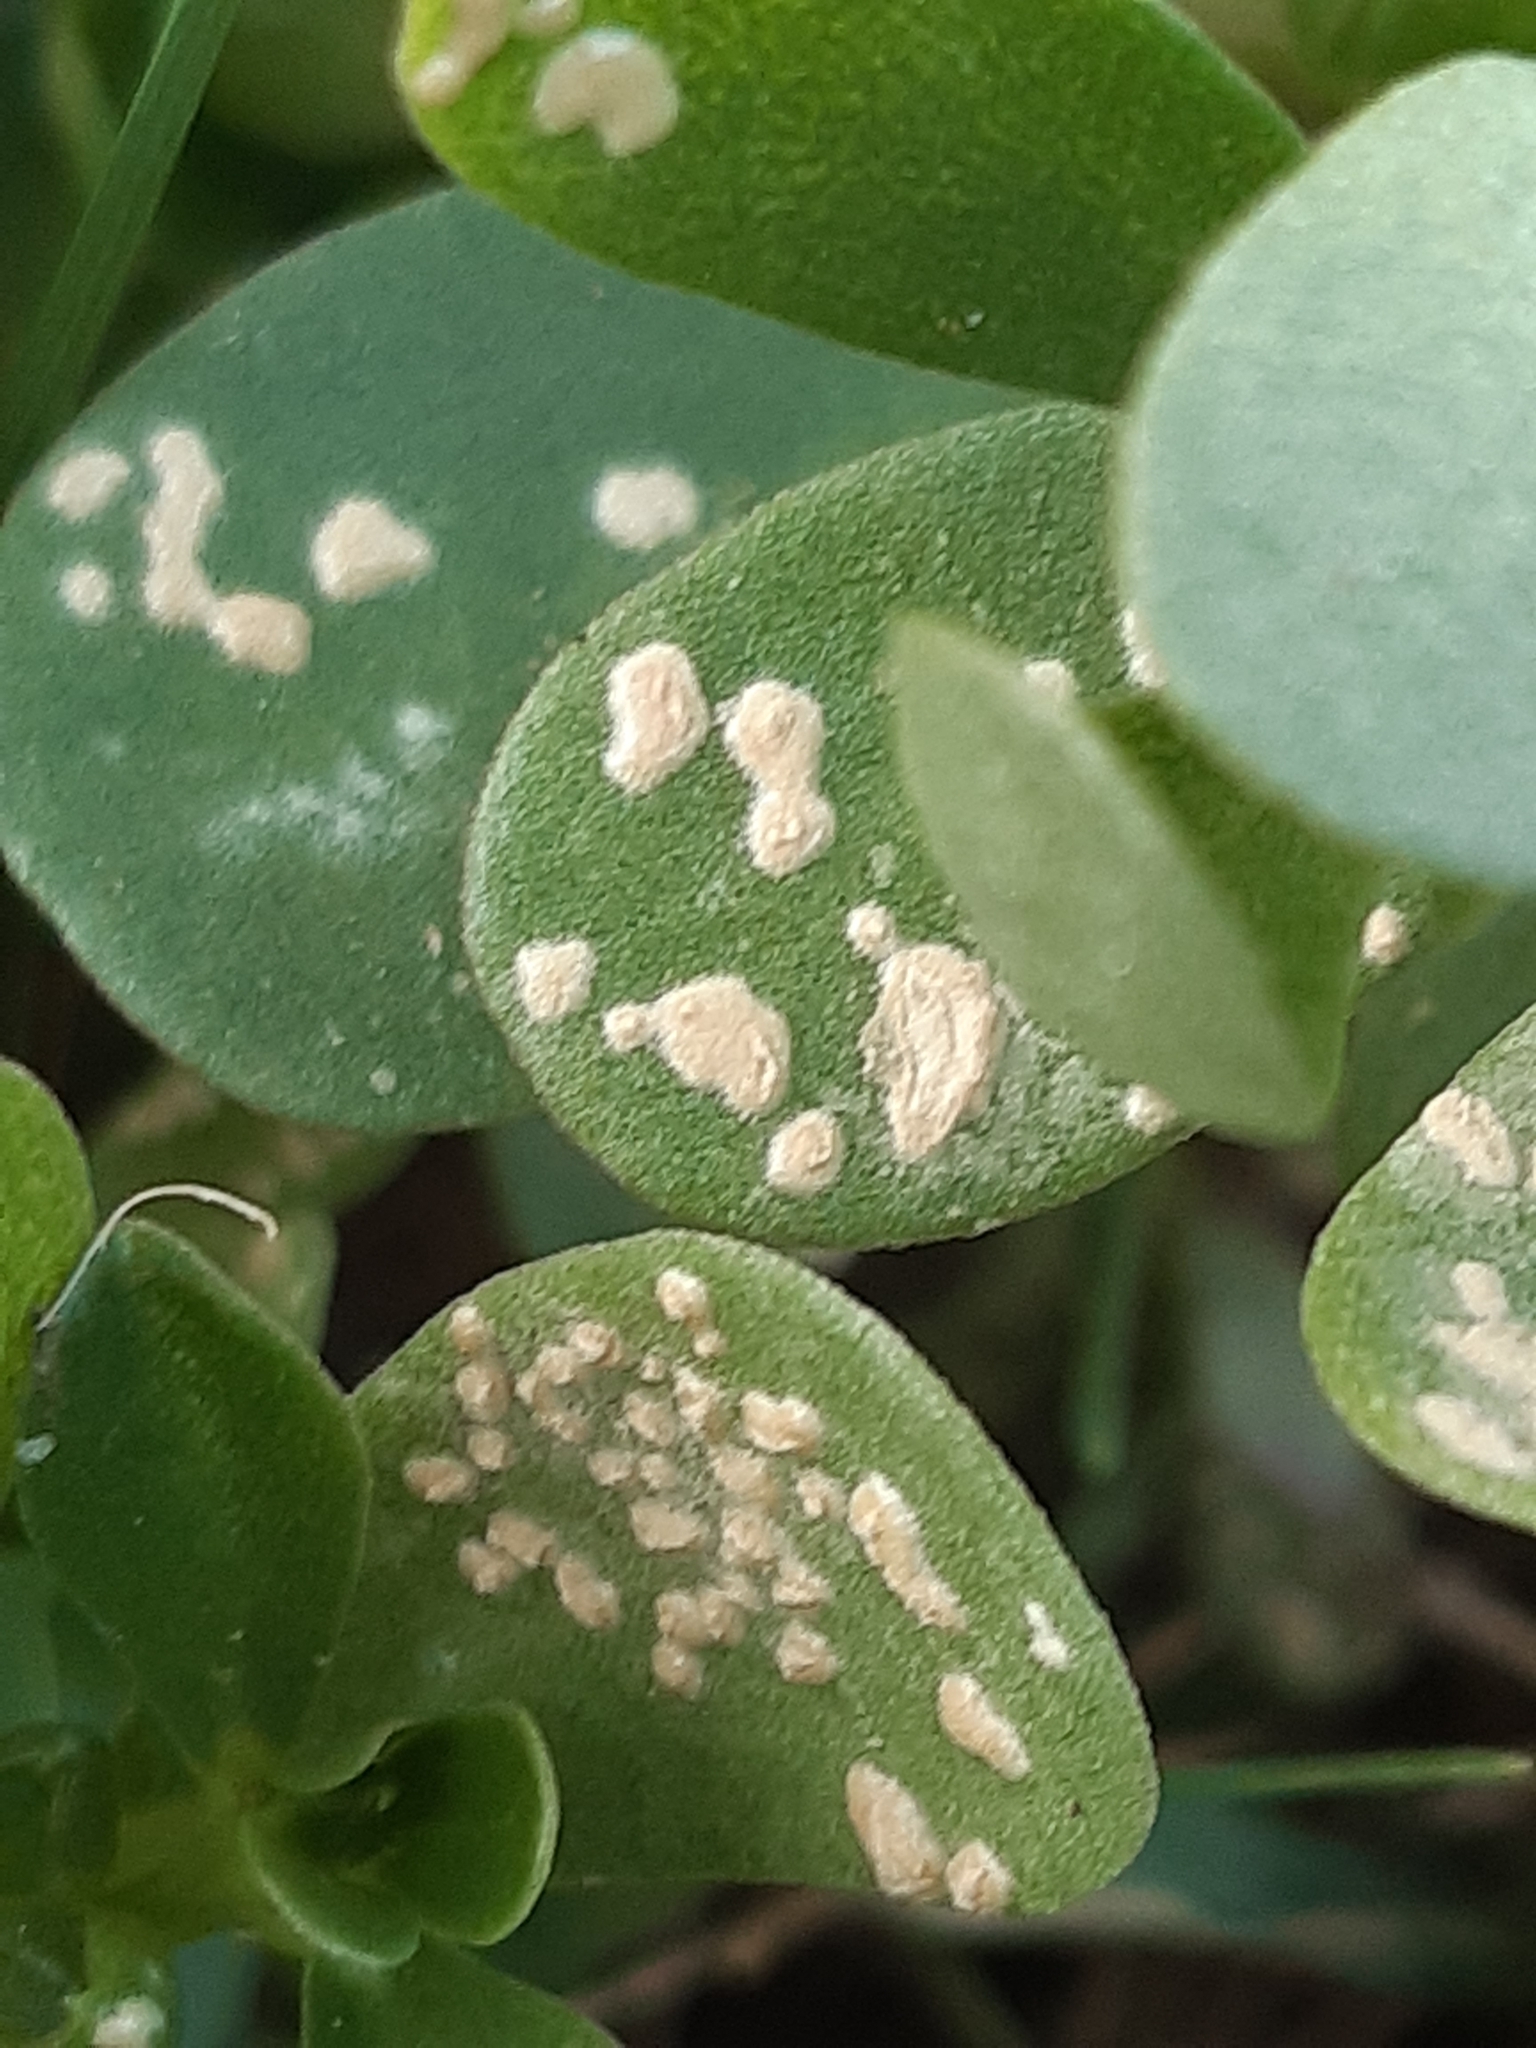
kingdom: Chromista
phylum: Oomycota
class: Peronosporea
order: Albuginales
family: Albuginaceae
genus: Wilsoniana
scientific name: Wilsoniana portulacae
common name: Purslane white rust
